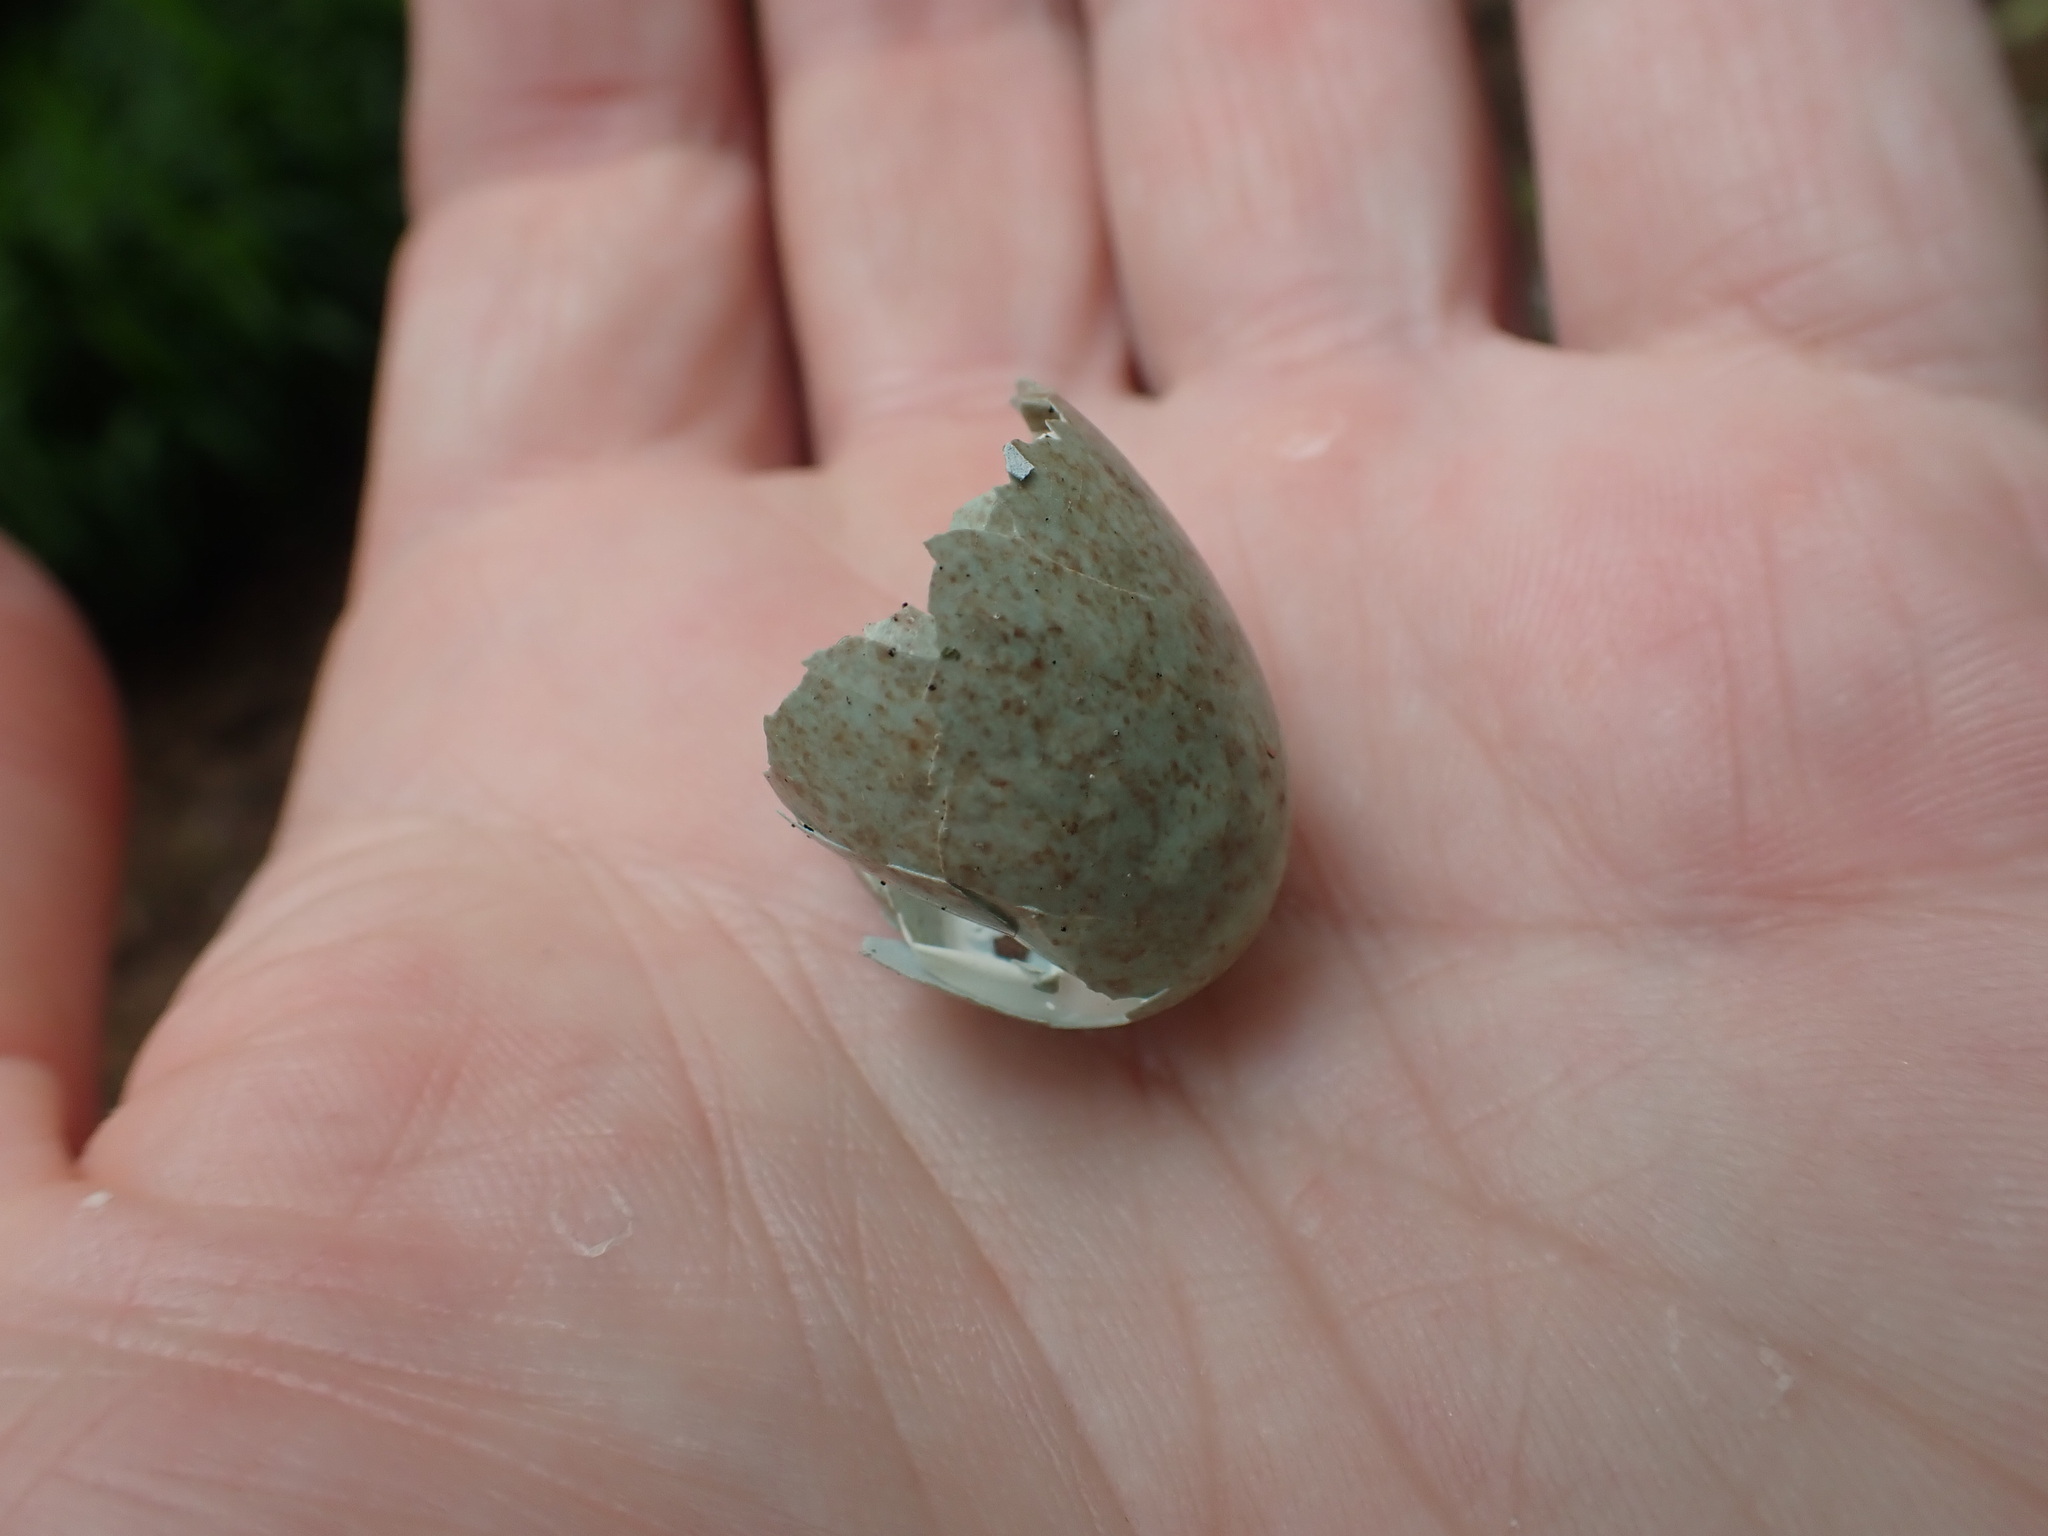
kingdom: Animalia
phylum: Chordata
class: Aves
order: Passeriformes
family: Turdidae
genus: Turdus
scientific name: Turdus merula
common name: Common blackbird
